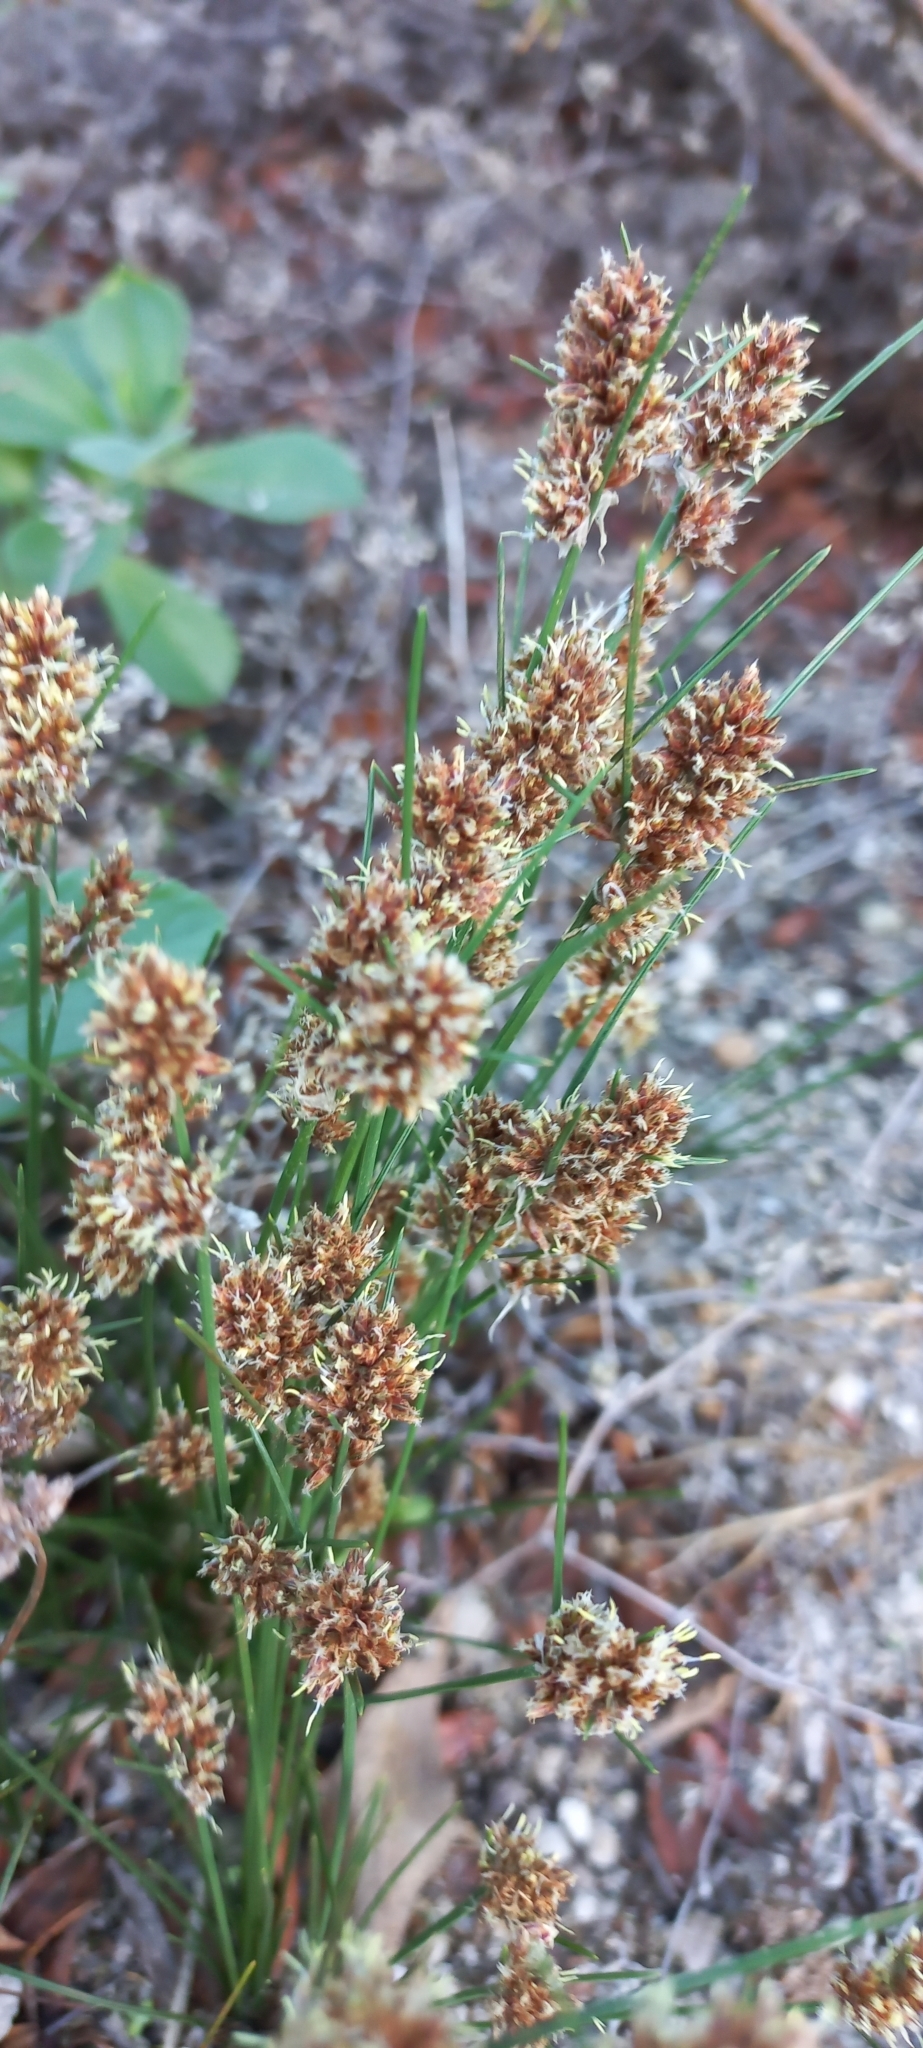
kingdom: Plantae
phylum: Tracheophyta
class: Liliopsida
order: Poales
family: Cyperaceae
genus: Ficinia
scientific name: Ficinia bulbosa
